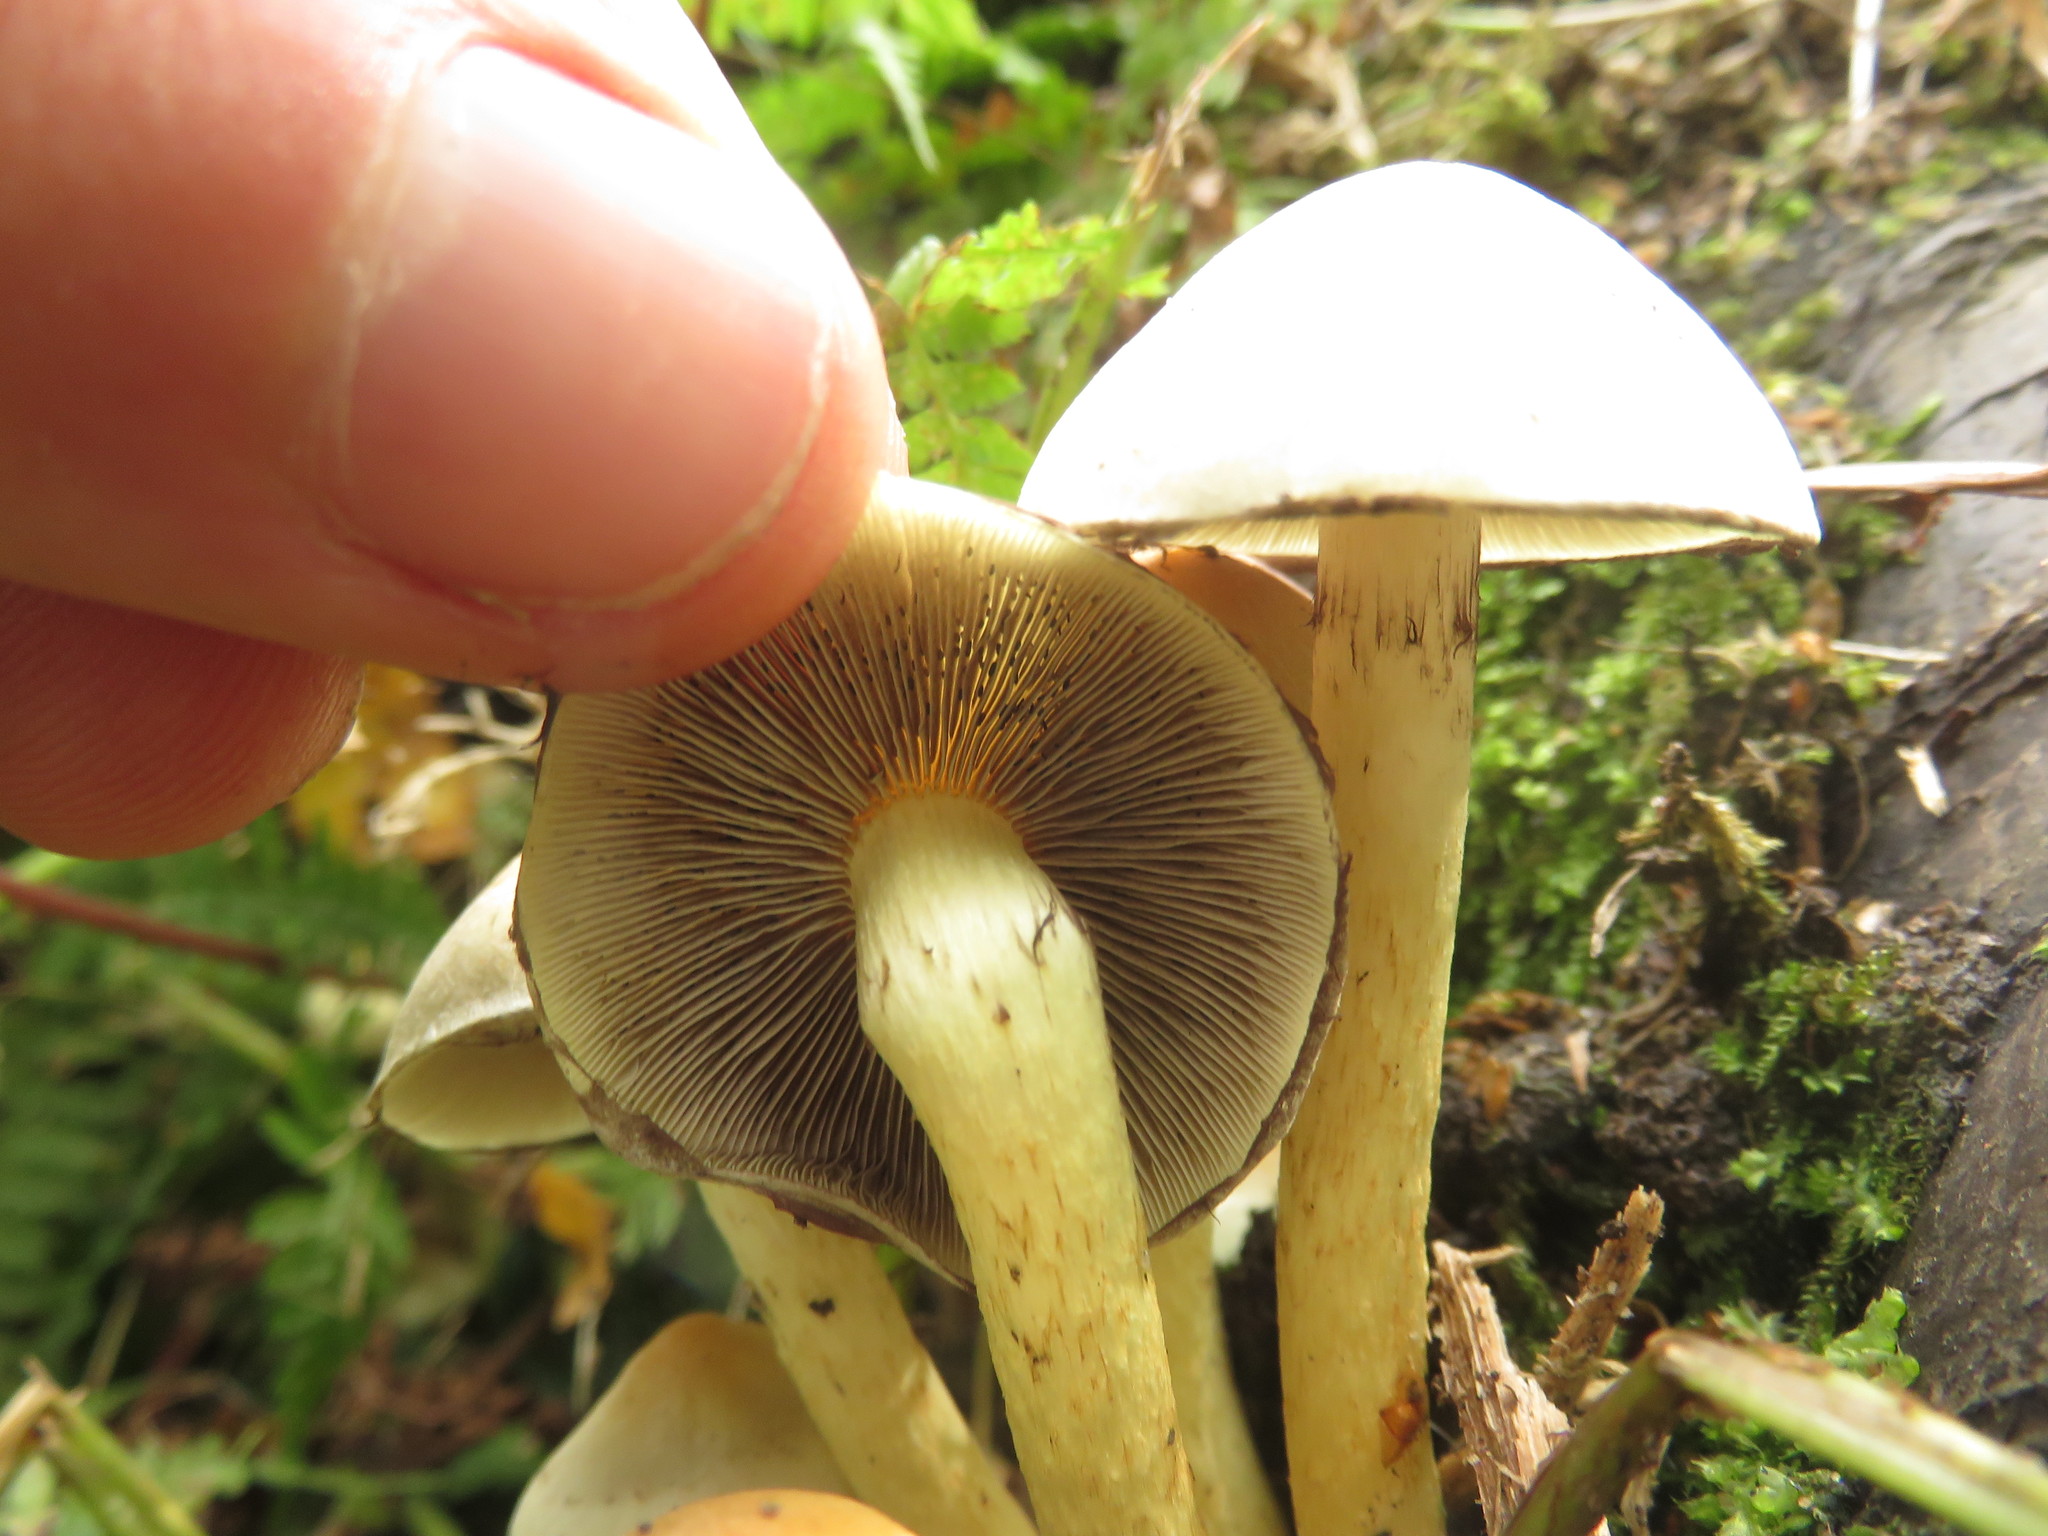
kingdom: Fungi
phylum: Basidiomycota
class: Agaricomycetes
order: Agaricales
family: Strophariaceae
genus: Hypholoma
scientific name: Hypholoma fasciculare
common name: Sulphur tuft
